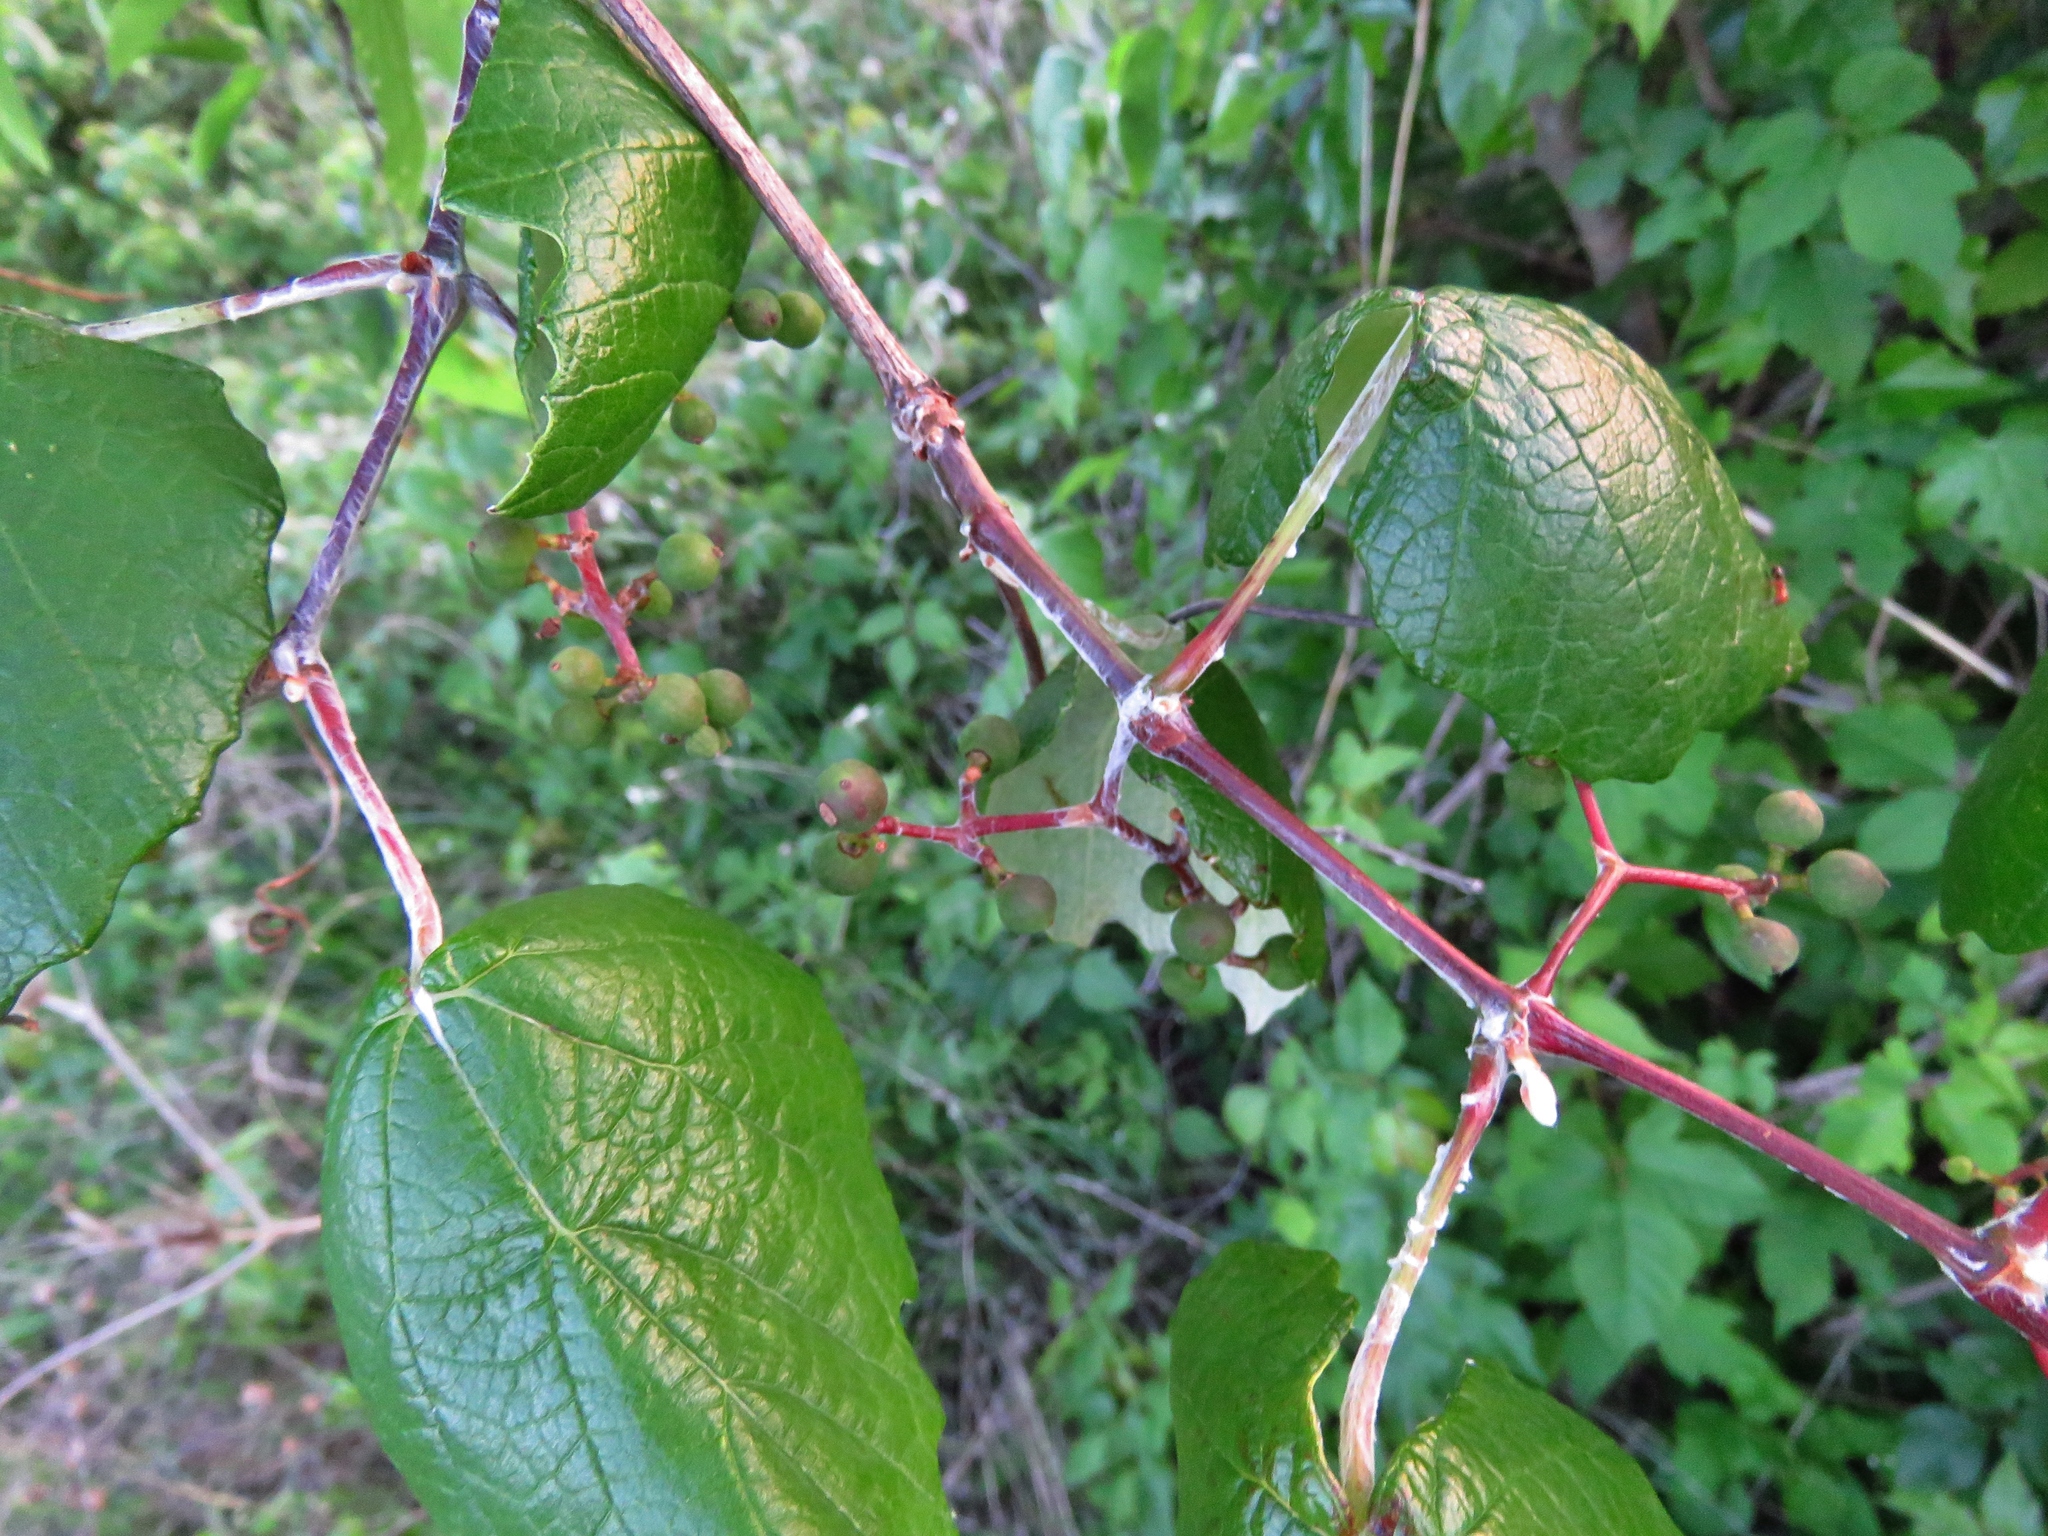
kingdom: Plantae
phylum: Tracheophyta
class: Magnoliopsida
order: Vitales
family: Vitaceae
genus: Vitis
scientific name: Vitis mustangensis
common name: Mustang grape
